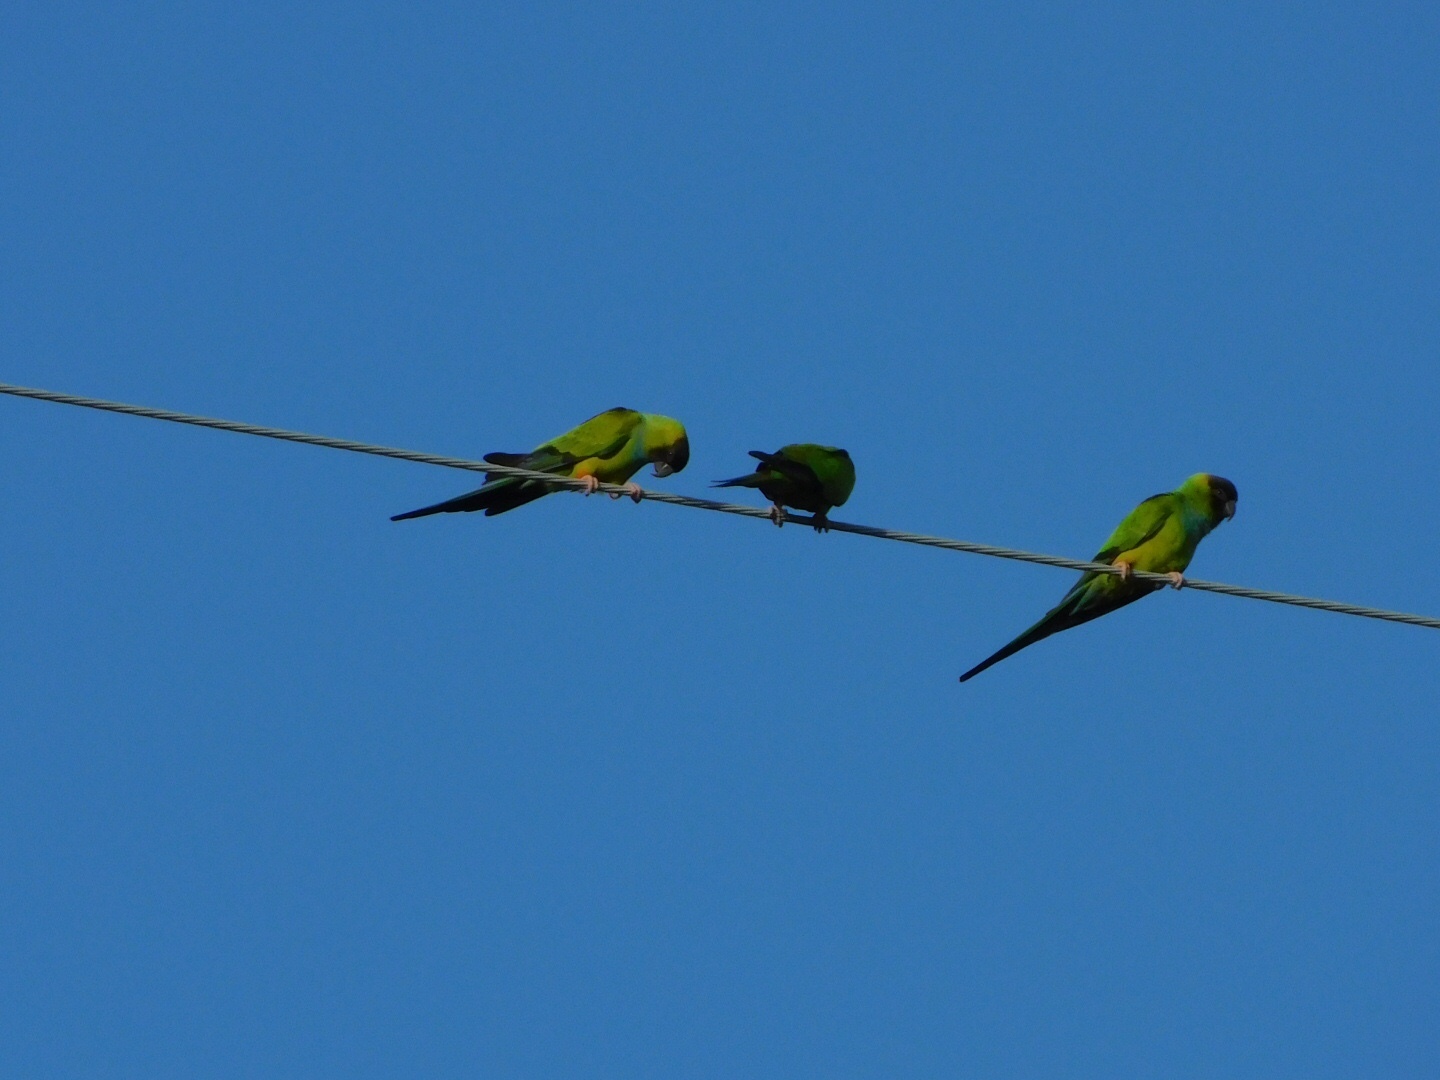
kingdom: Animalia
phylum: Chordata
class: Aves
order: Psittaciformes
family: Psittacidae
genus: Nandayus
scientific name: Nandayus nenday
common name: Nanday parakeet
